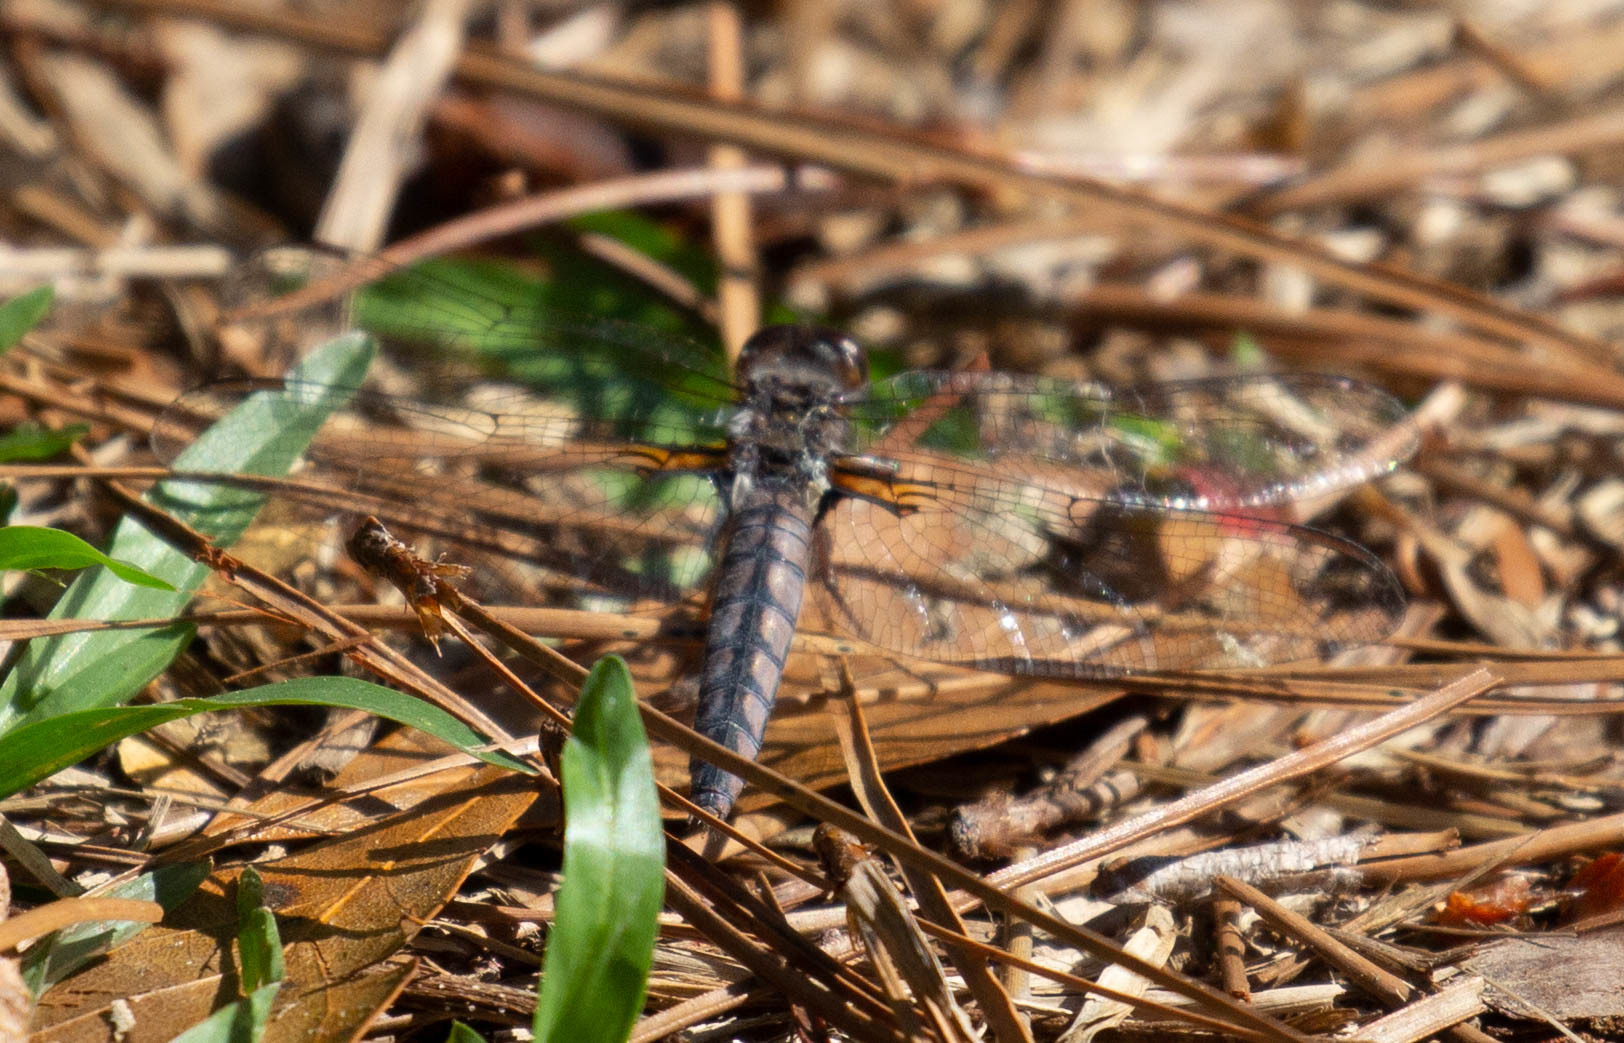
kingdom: Animalia
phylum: Arthropoda
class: Insecta
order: Odonata
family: Libellulidae
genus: Ladona
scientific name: Ladona deplanata
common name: Blue corporal
